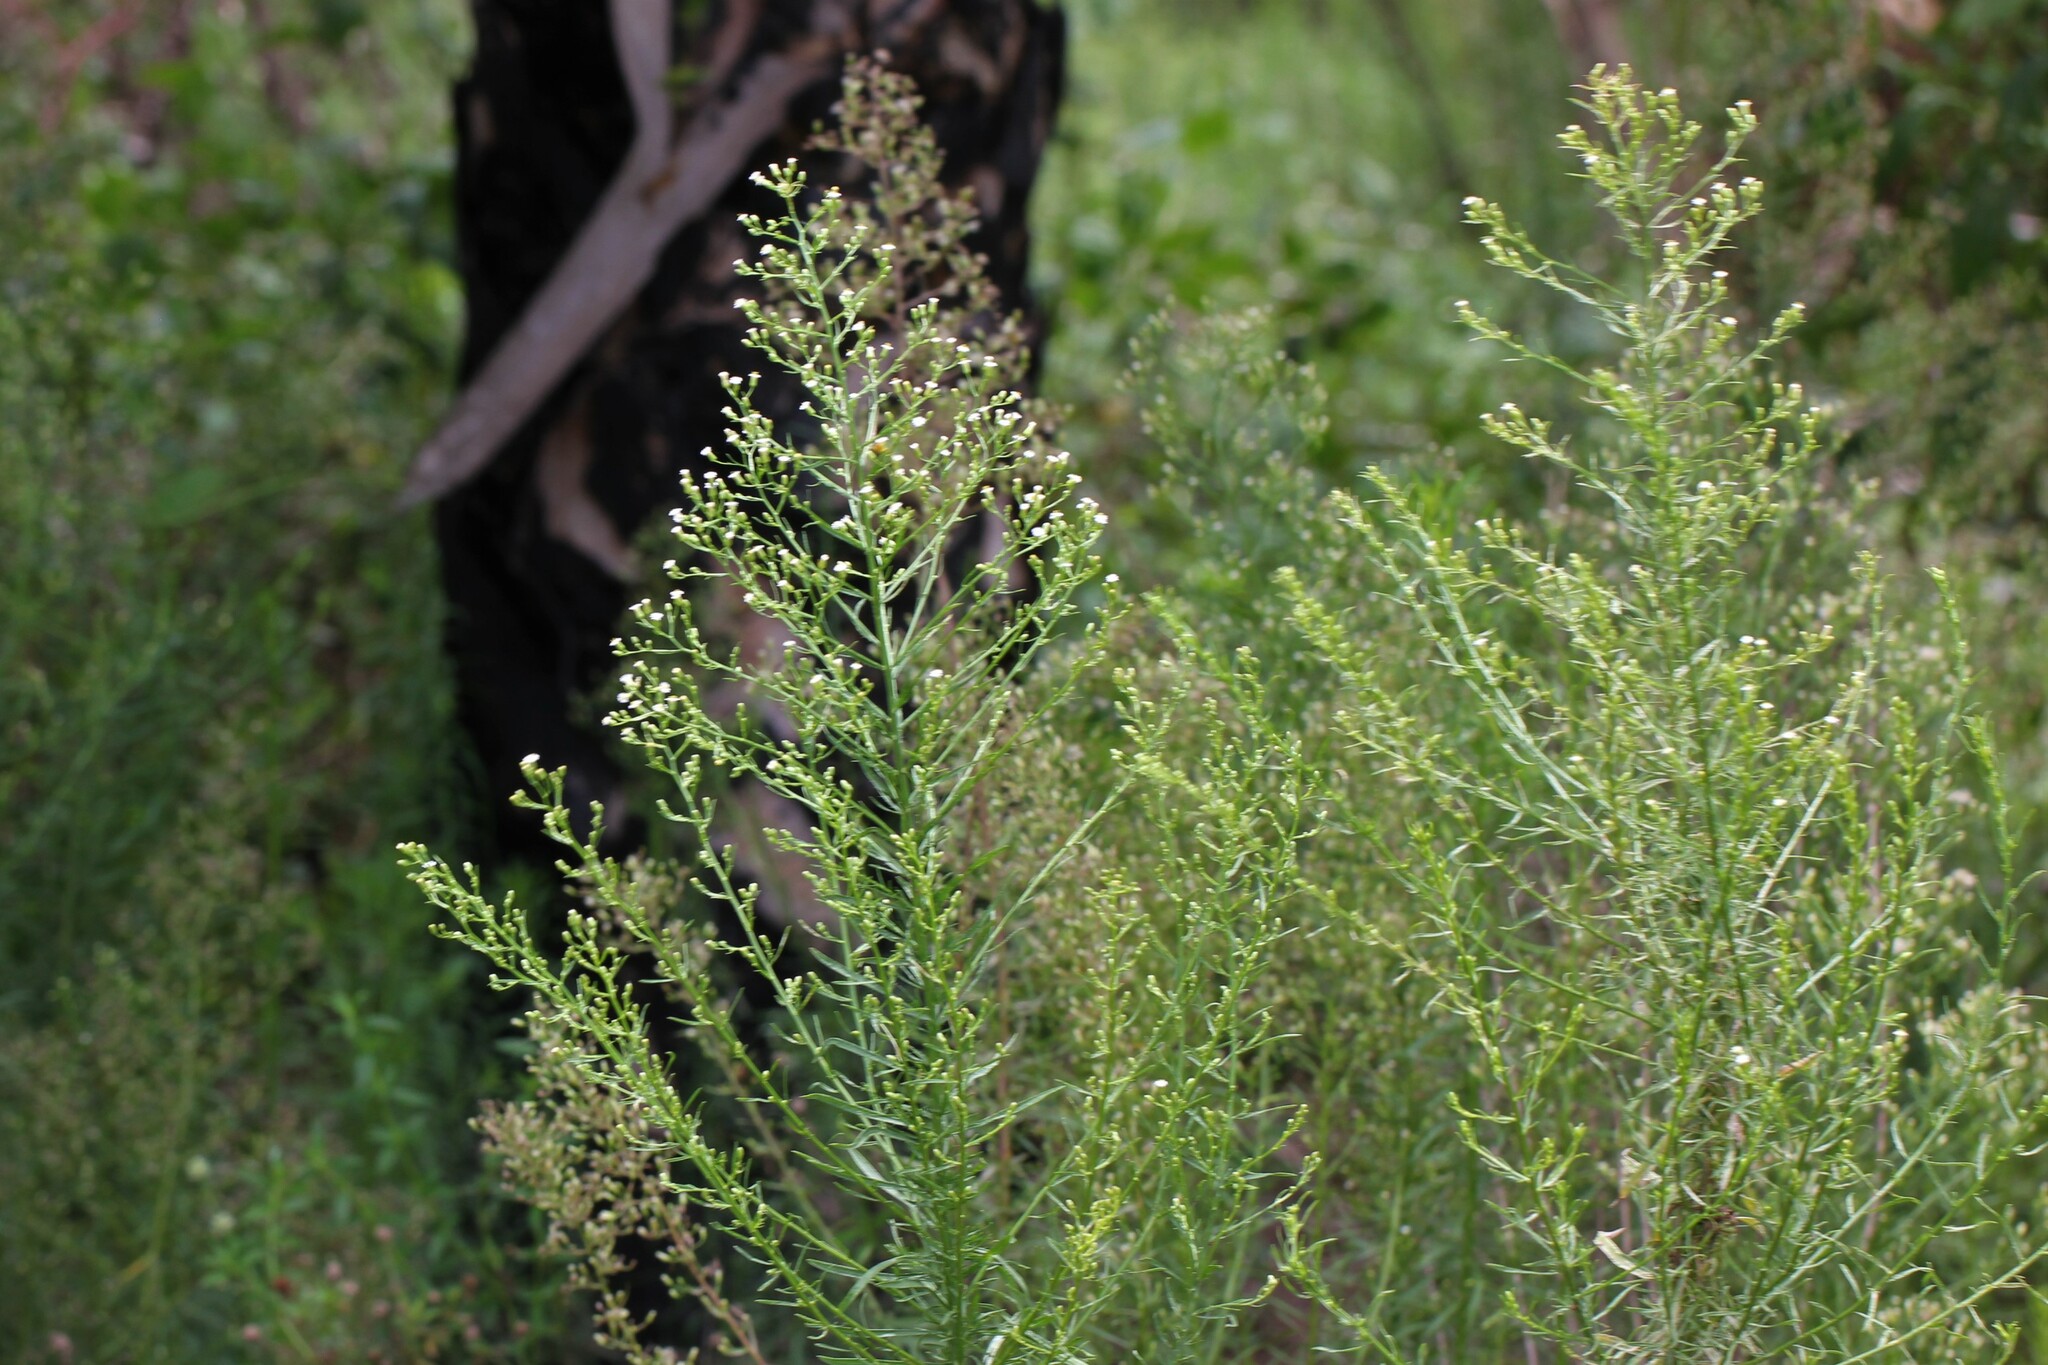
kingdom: Plantae
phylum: Tracheophyta
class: Magnoliopsida
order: Asterales
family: Asteraceae
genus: Erigeron
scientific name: Erigeron canadensis
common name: Canadian fleabane
